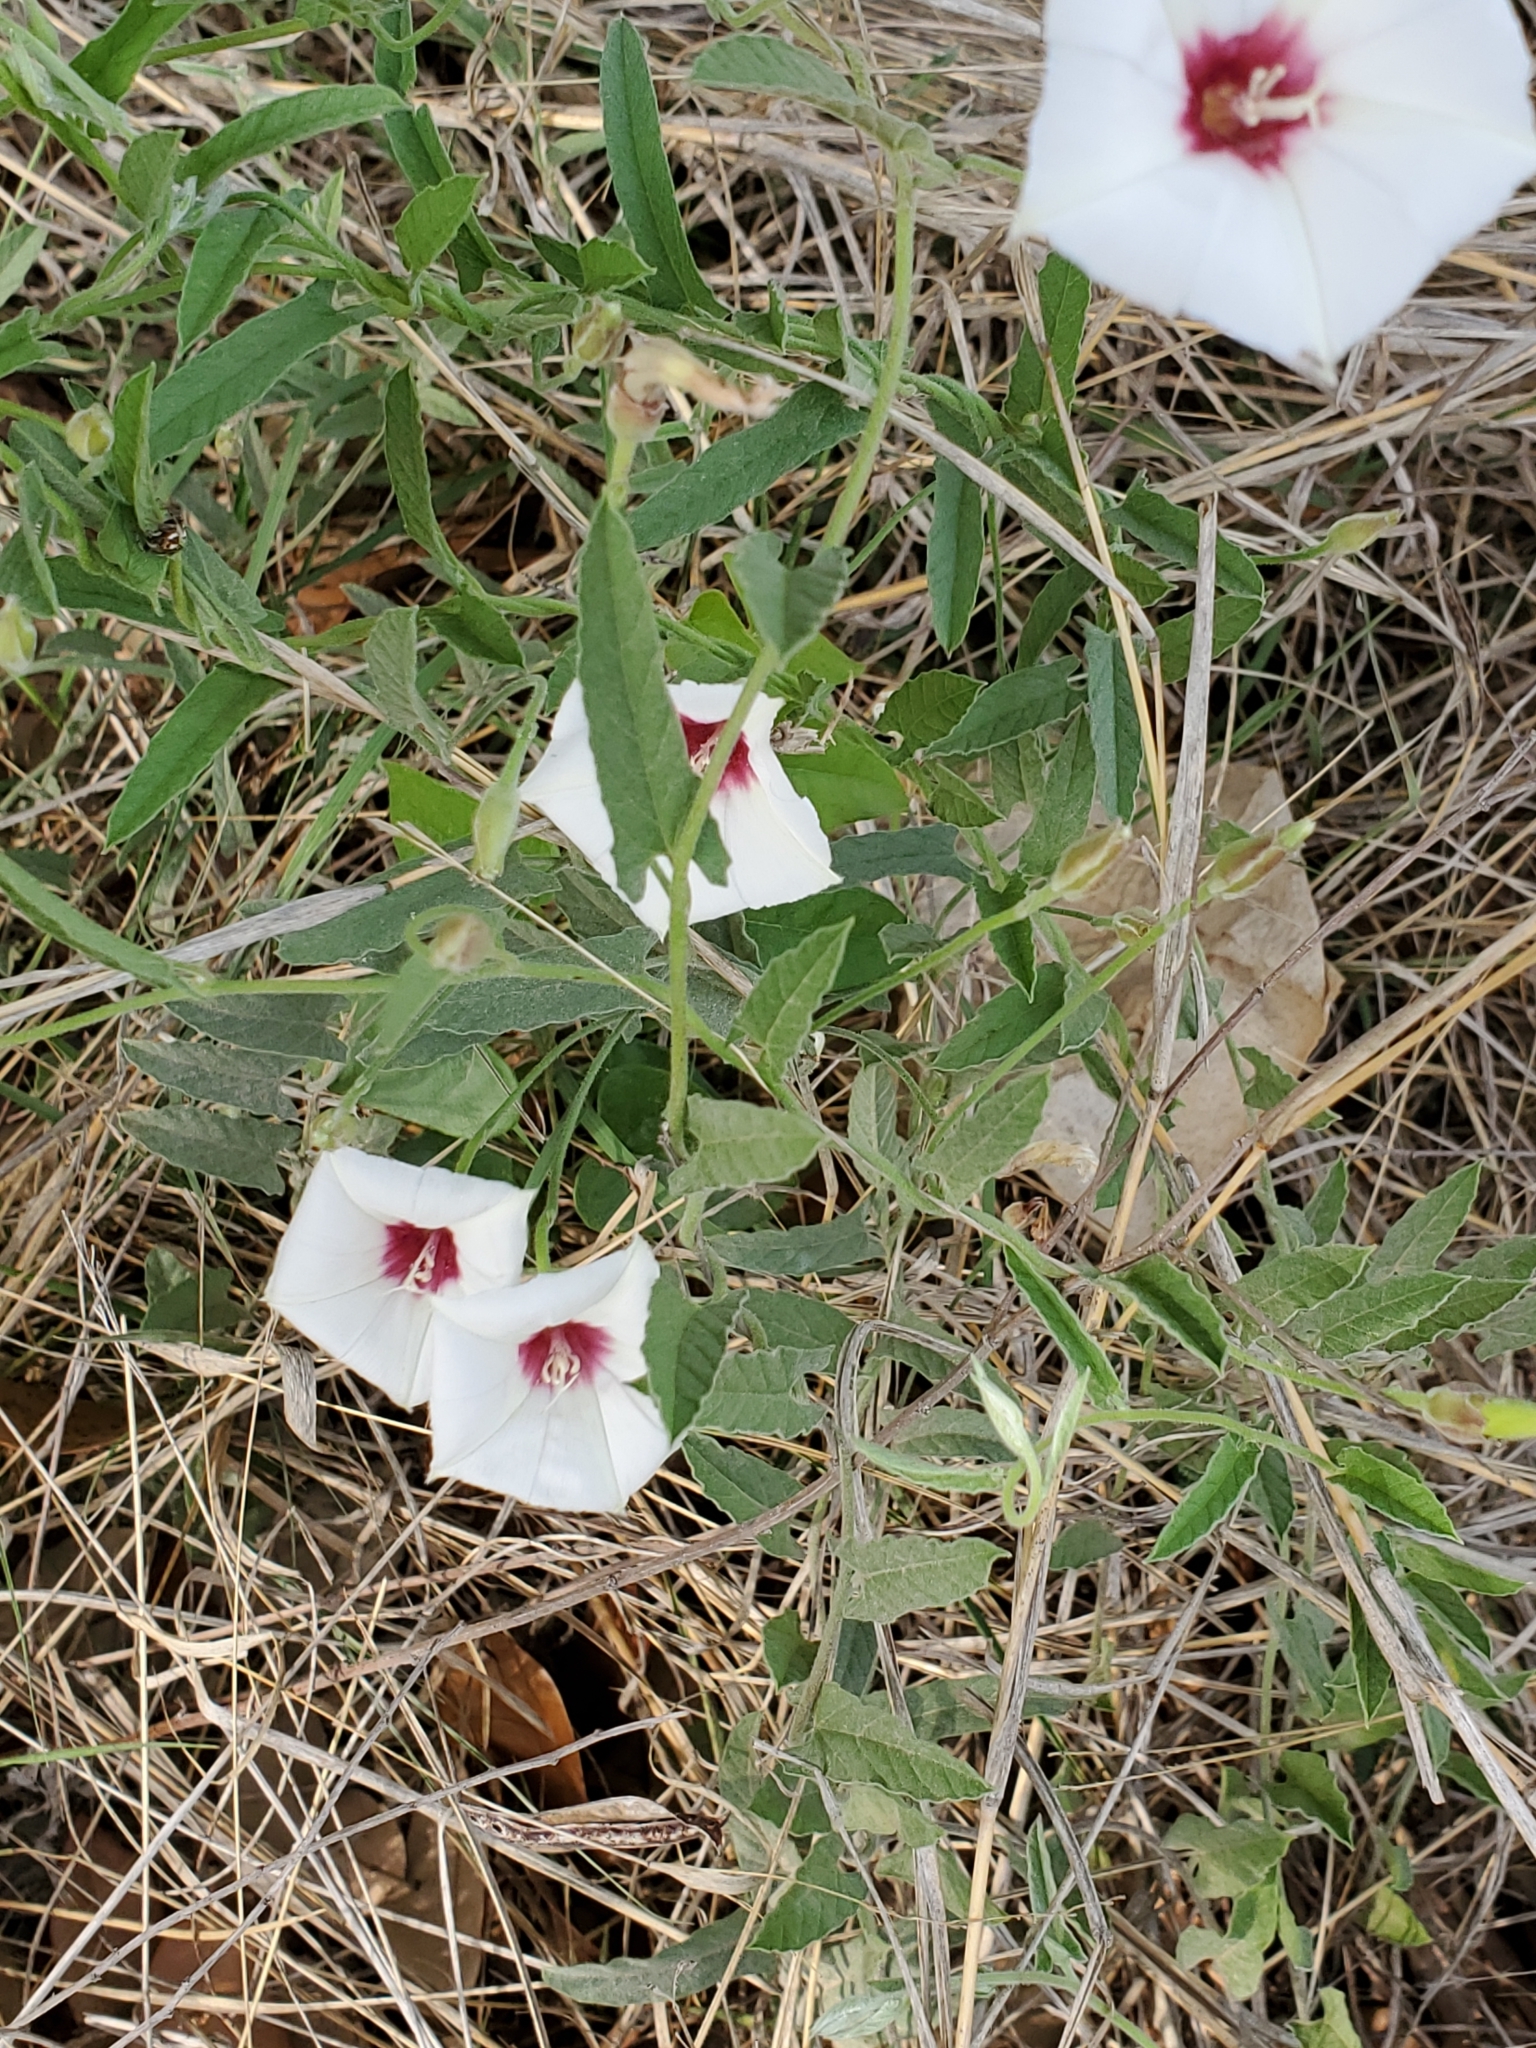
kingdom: Plantae
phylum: Tracheophyta
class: Magnoliopsida
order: Solanales
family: Convolvulaceae
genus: Convolvulus
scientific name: Convolvulus equitans
